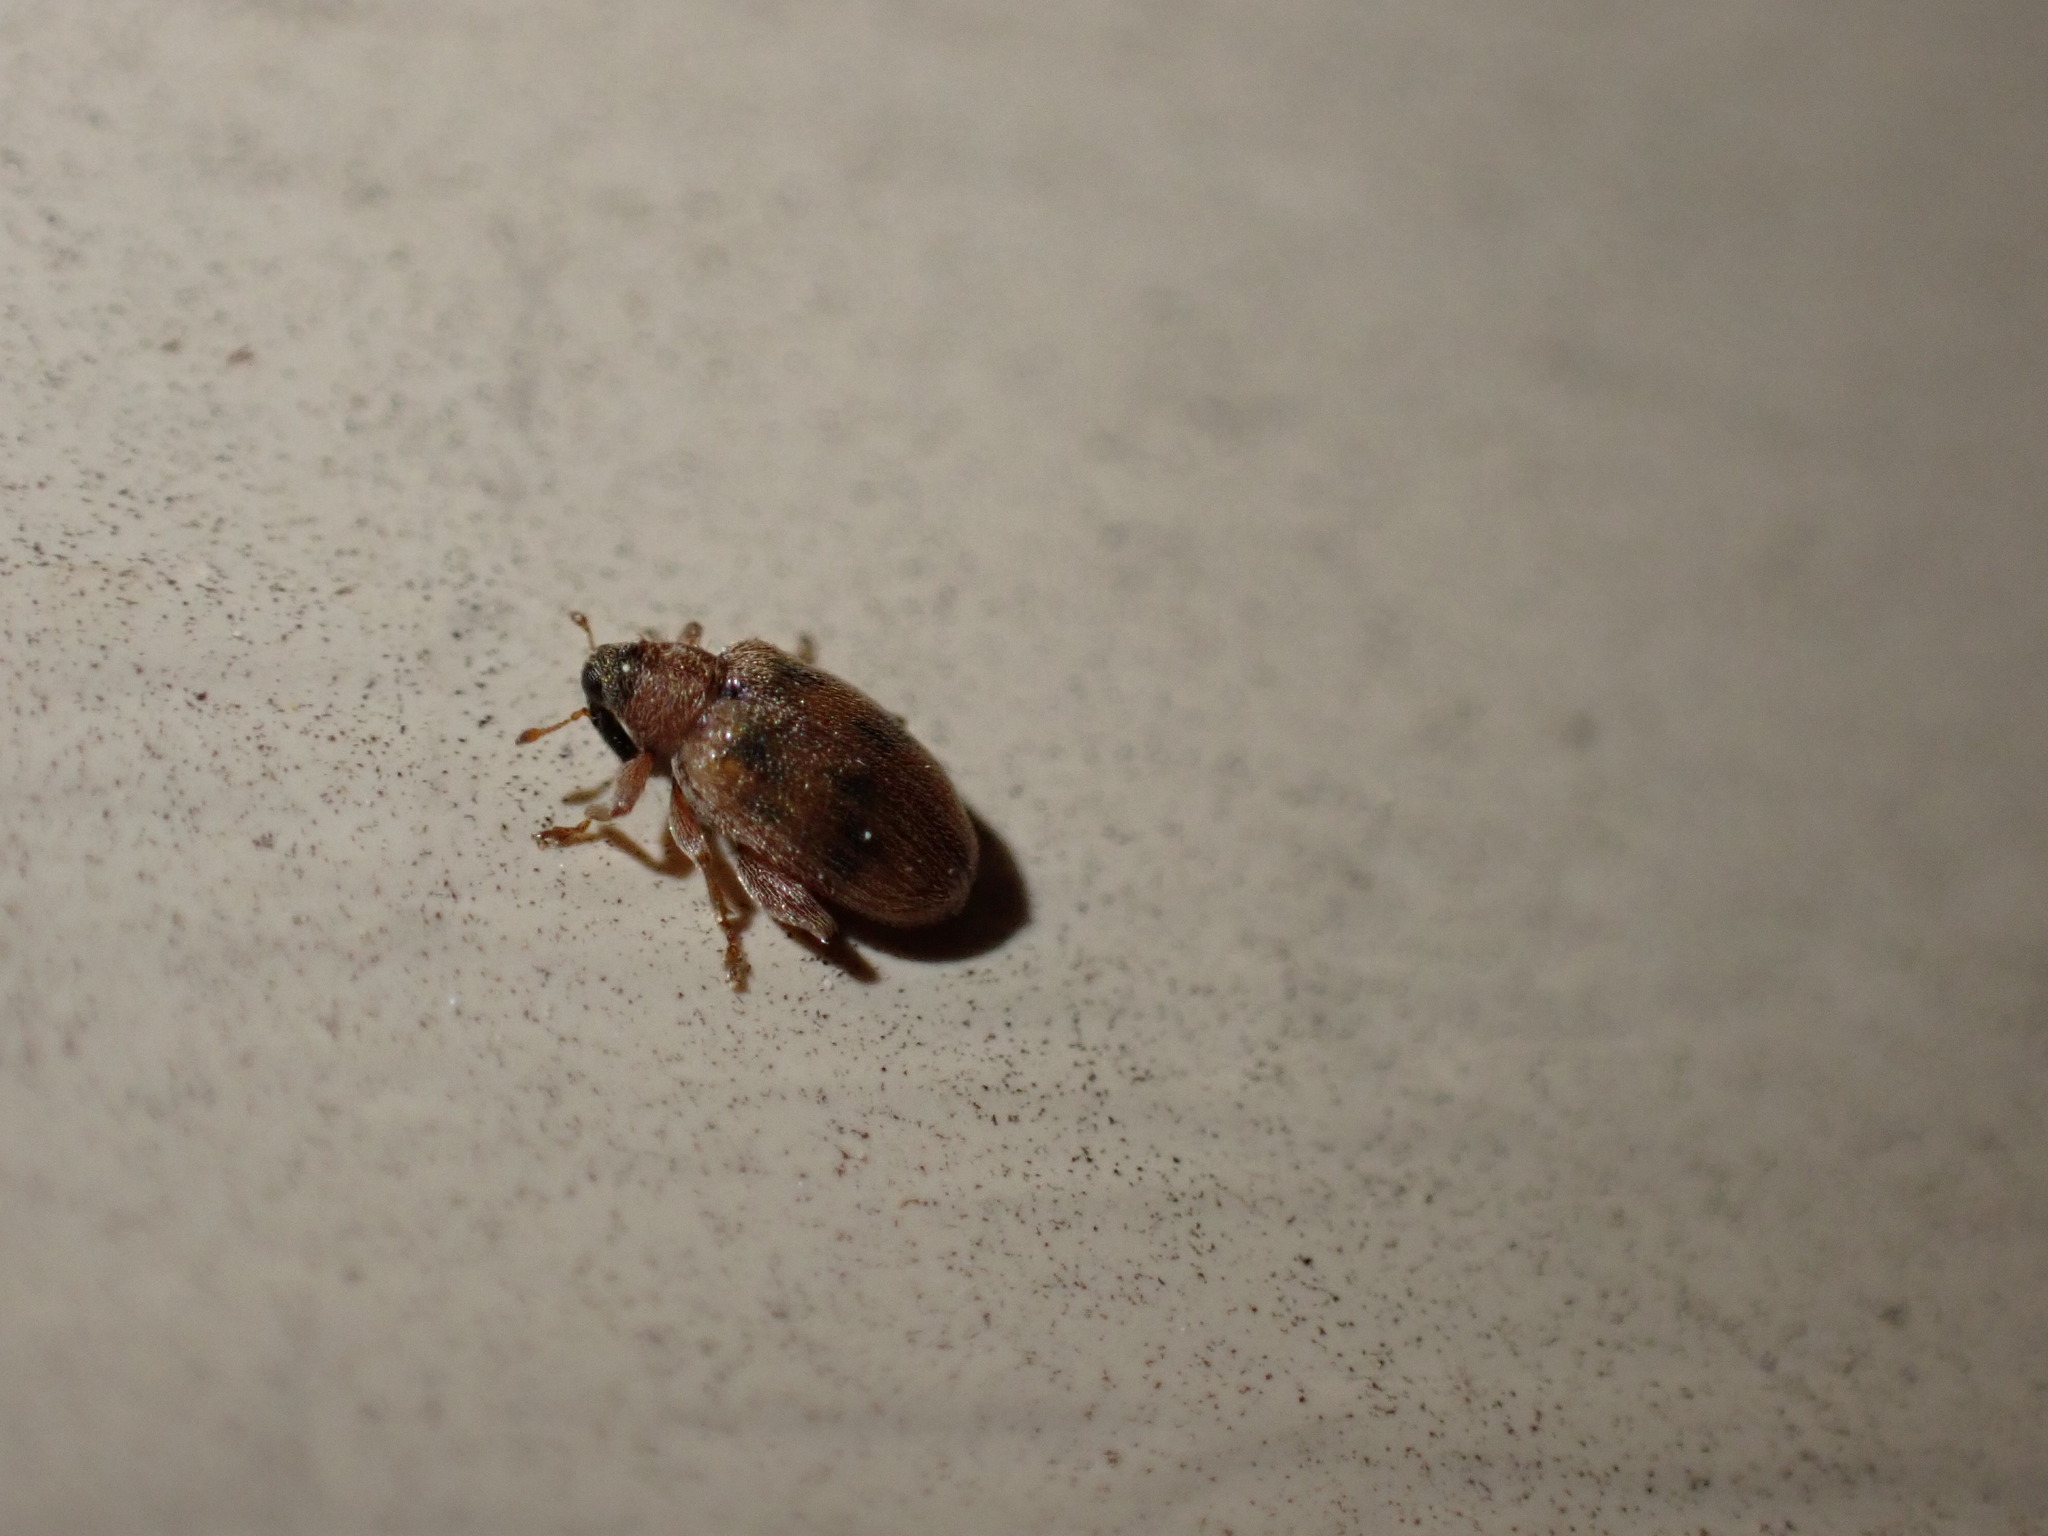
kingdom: Animalia
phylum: Arthropoda
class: Insecta
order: Coleoptera
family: Curculionidae
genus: Orchestes
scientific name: Orchestes steppensis
